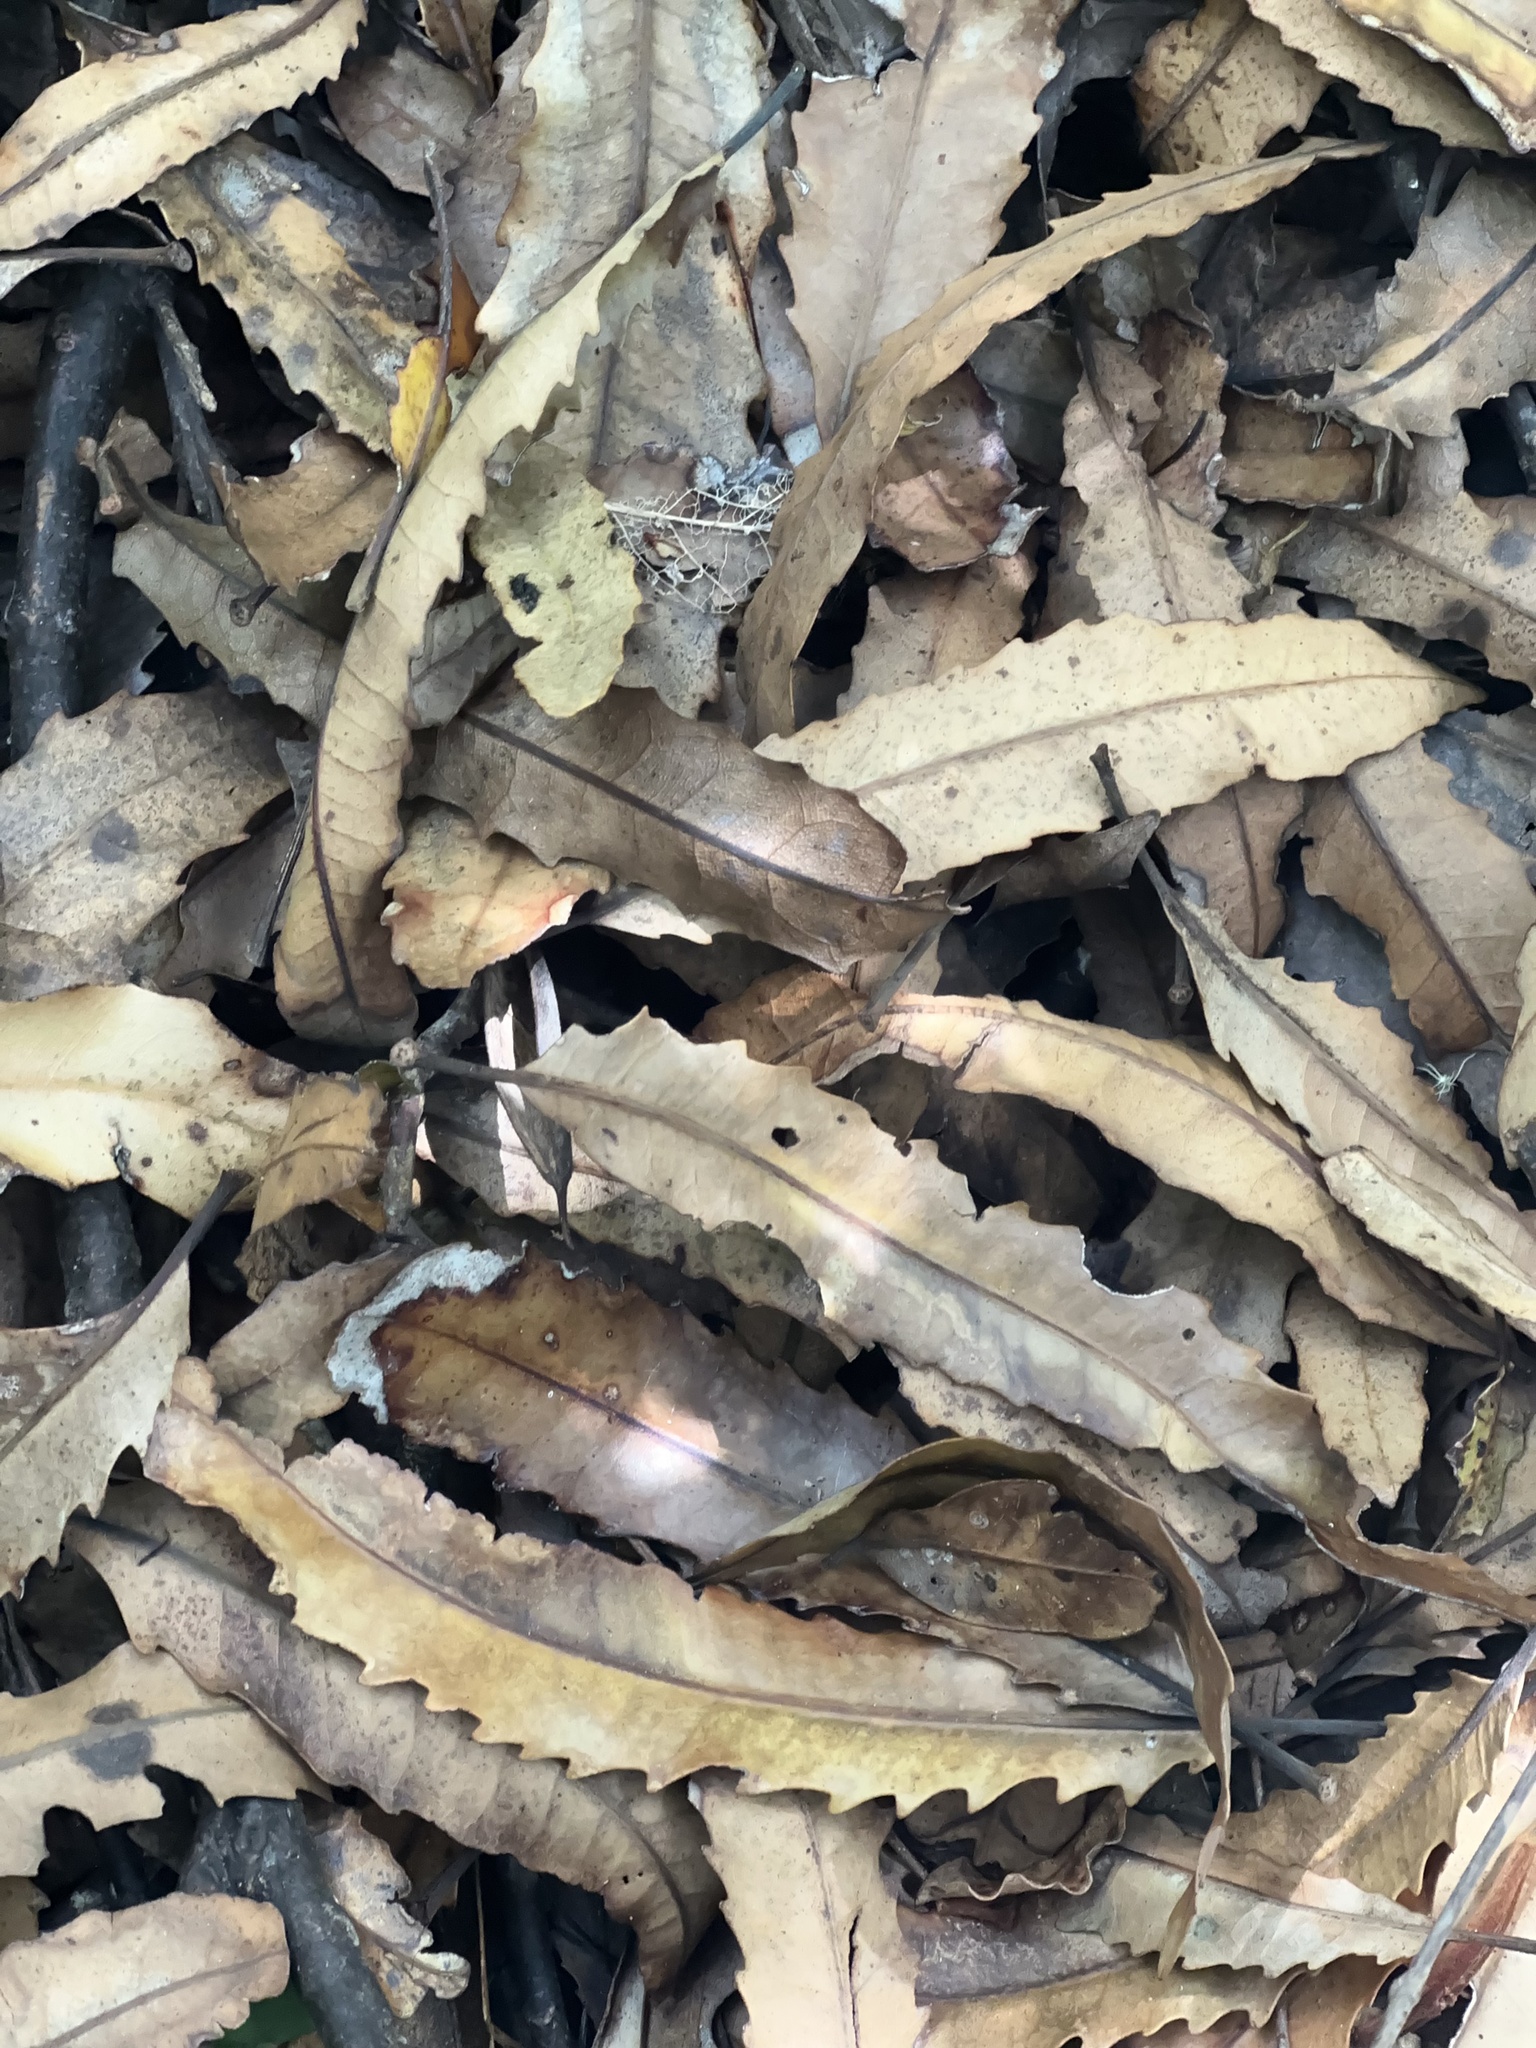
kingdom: Plantae
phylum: Tracheophyta
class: Magnoliopsida
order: Proteales
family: Proteaceae
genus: Knightia
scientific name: Knightia excelsa
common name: New zealand-honeysuckle
